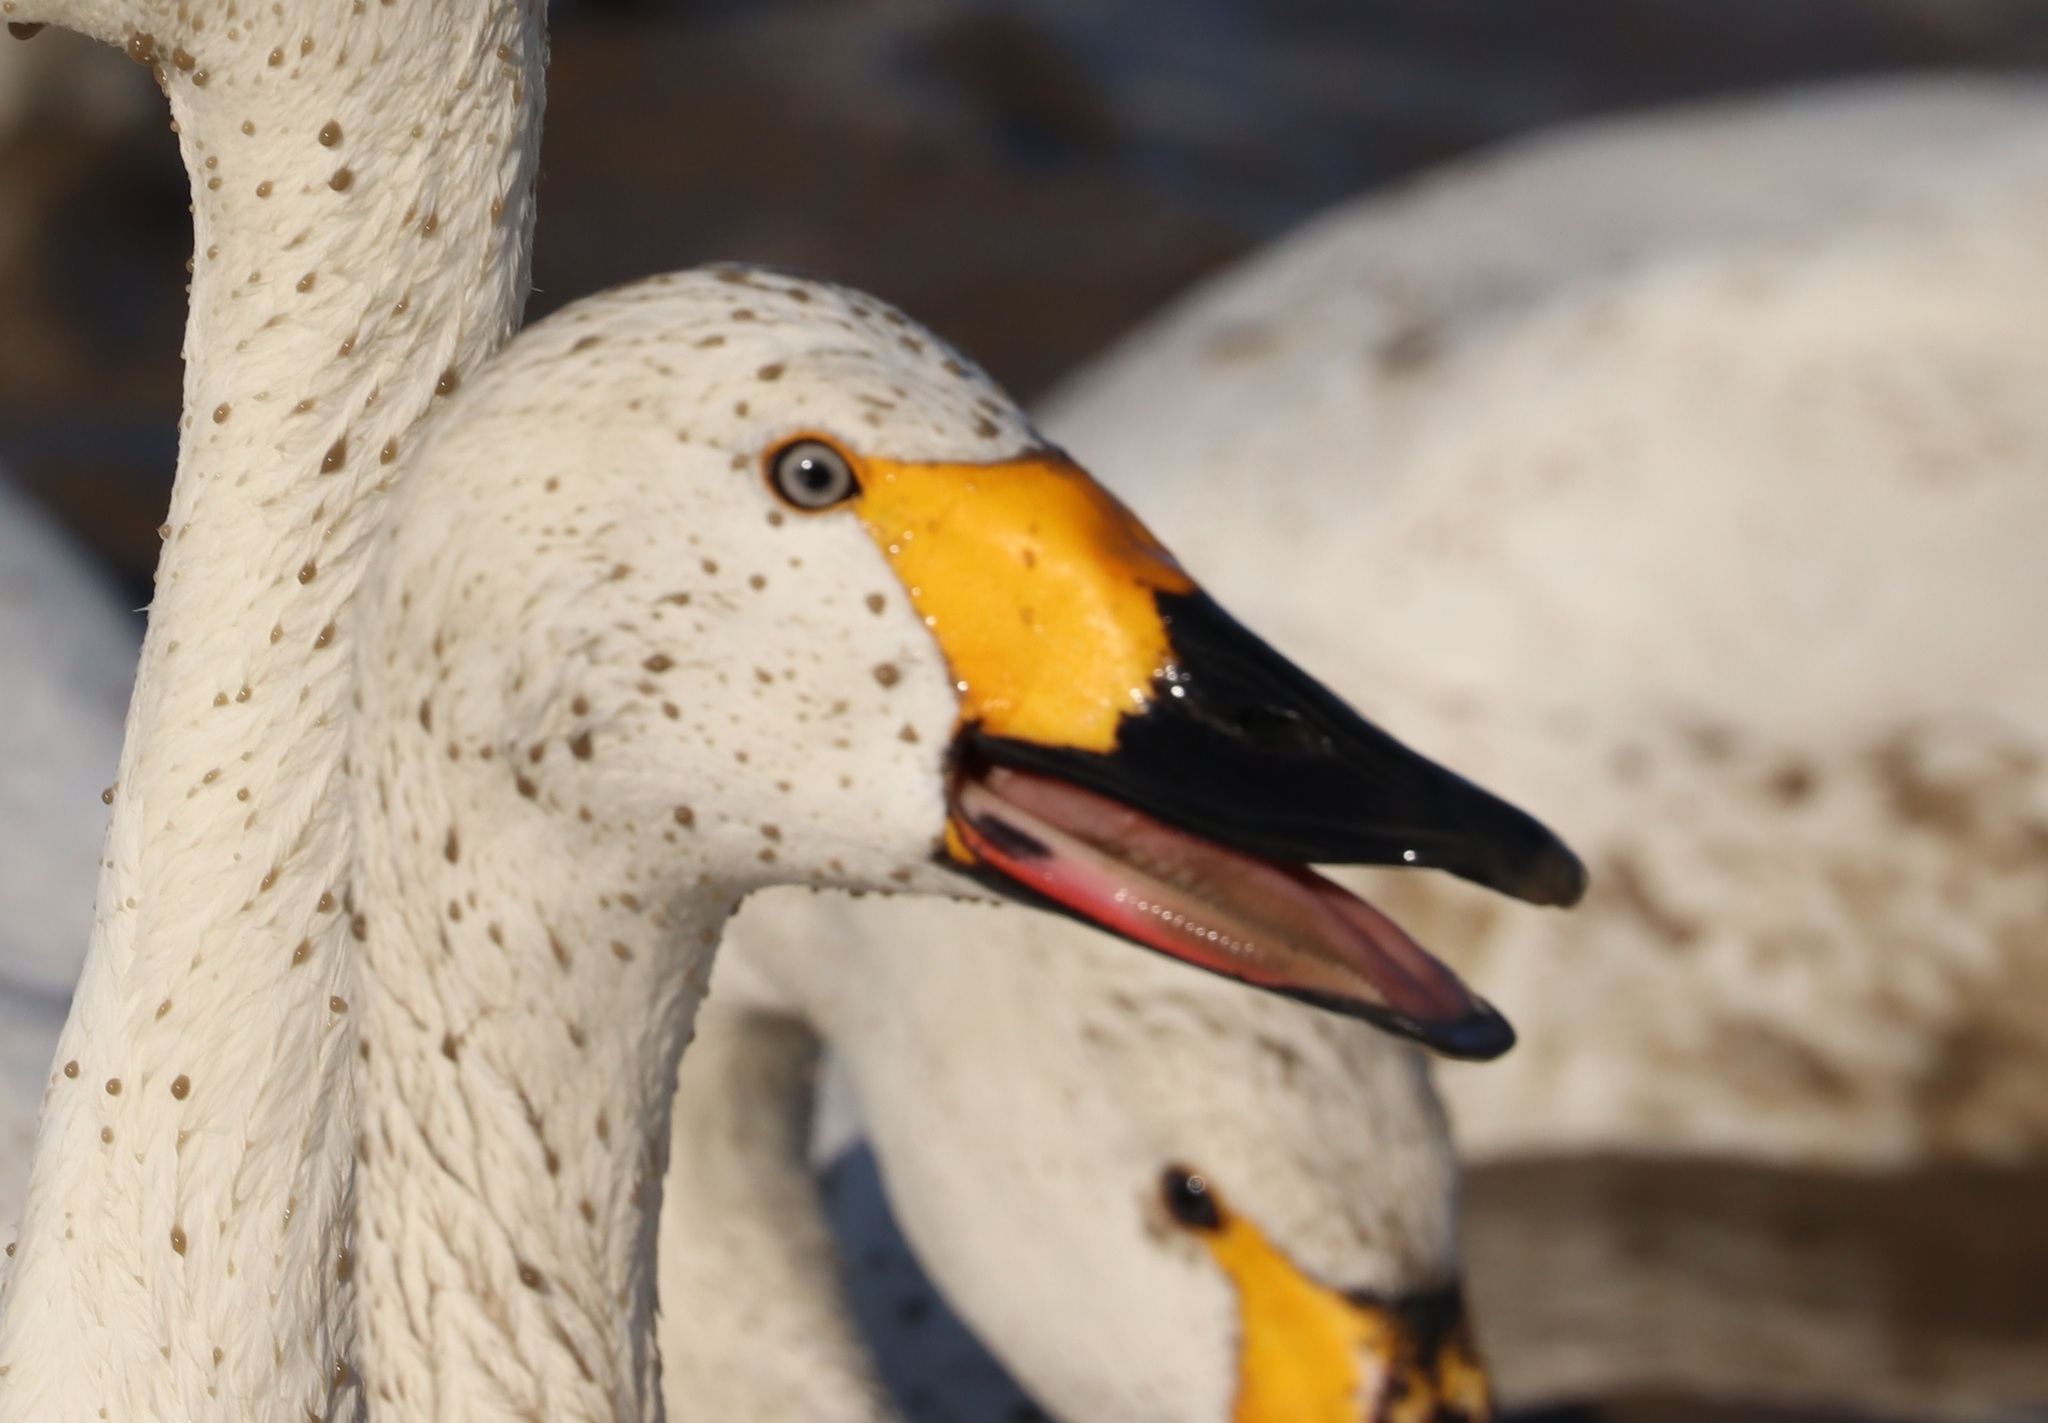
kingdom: Animalia
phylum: Chordata
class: Aves
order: Anseriformes
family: Anatidae
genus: Cygnus
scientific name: Cygnus columbianus
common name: Tundra swan
